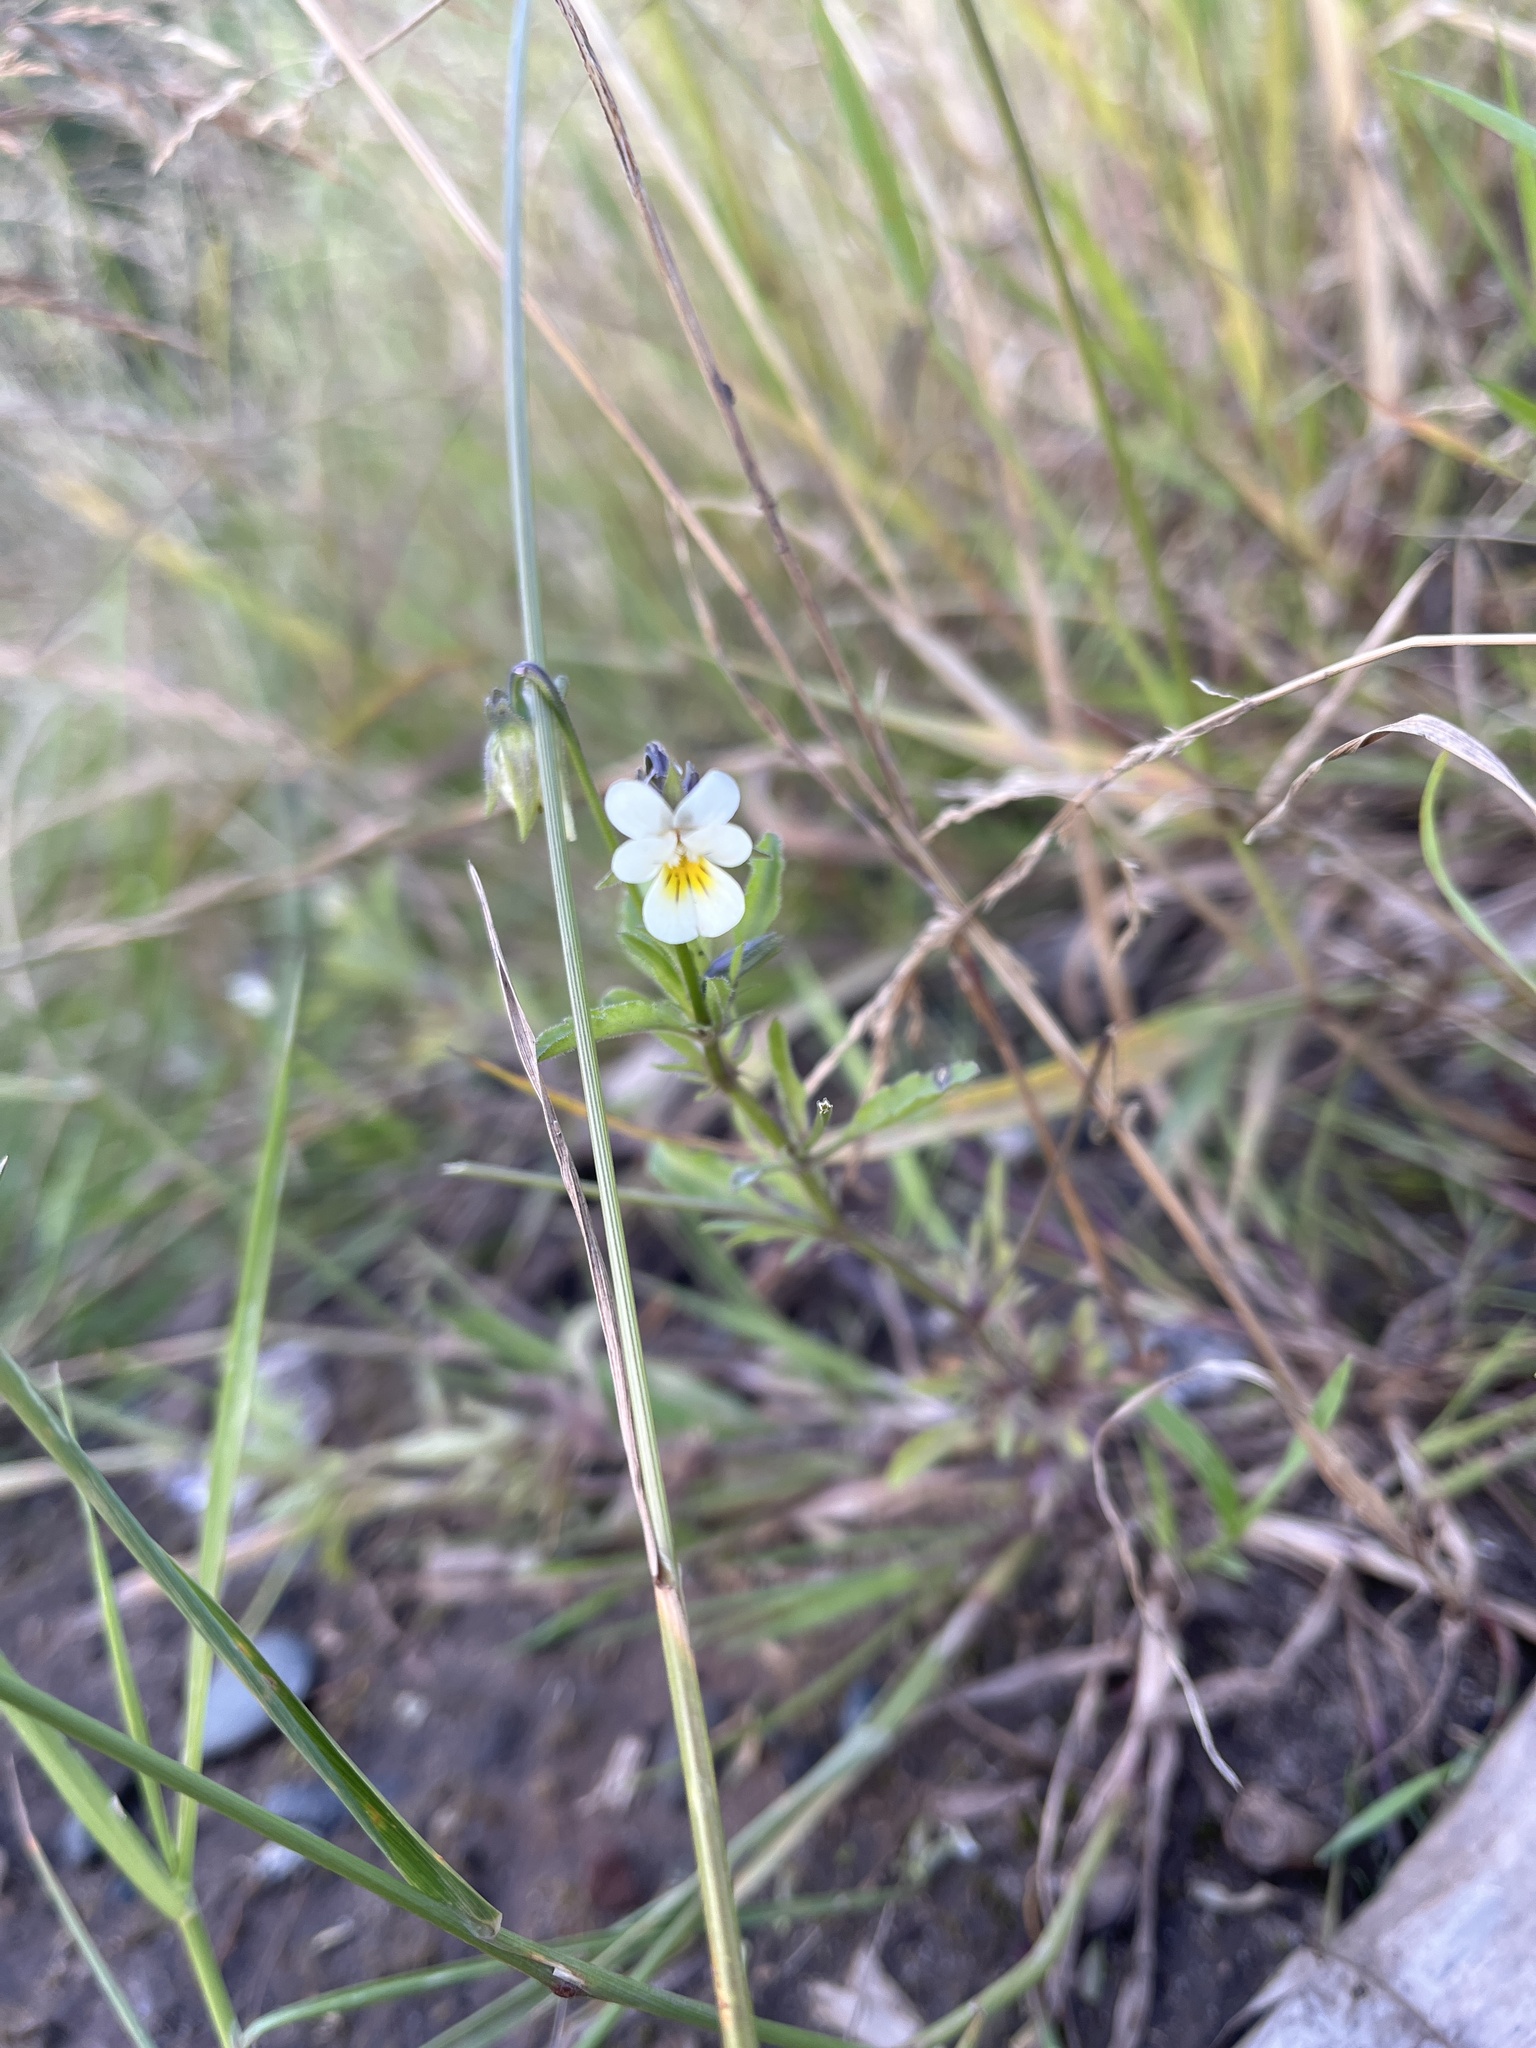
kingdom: Plantae
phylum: Tracheophyta
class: Magnoliopsida
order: Malpighiales
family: Violaceae
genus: Viola
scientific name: Viola arvensis
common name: Field pansy
